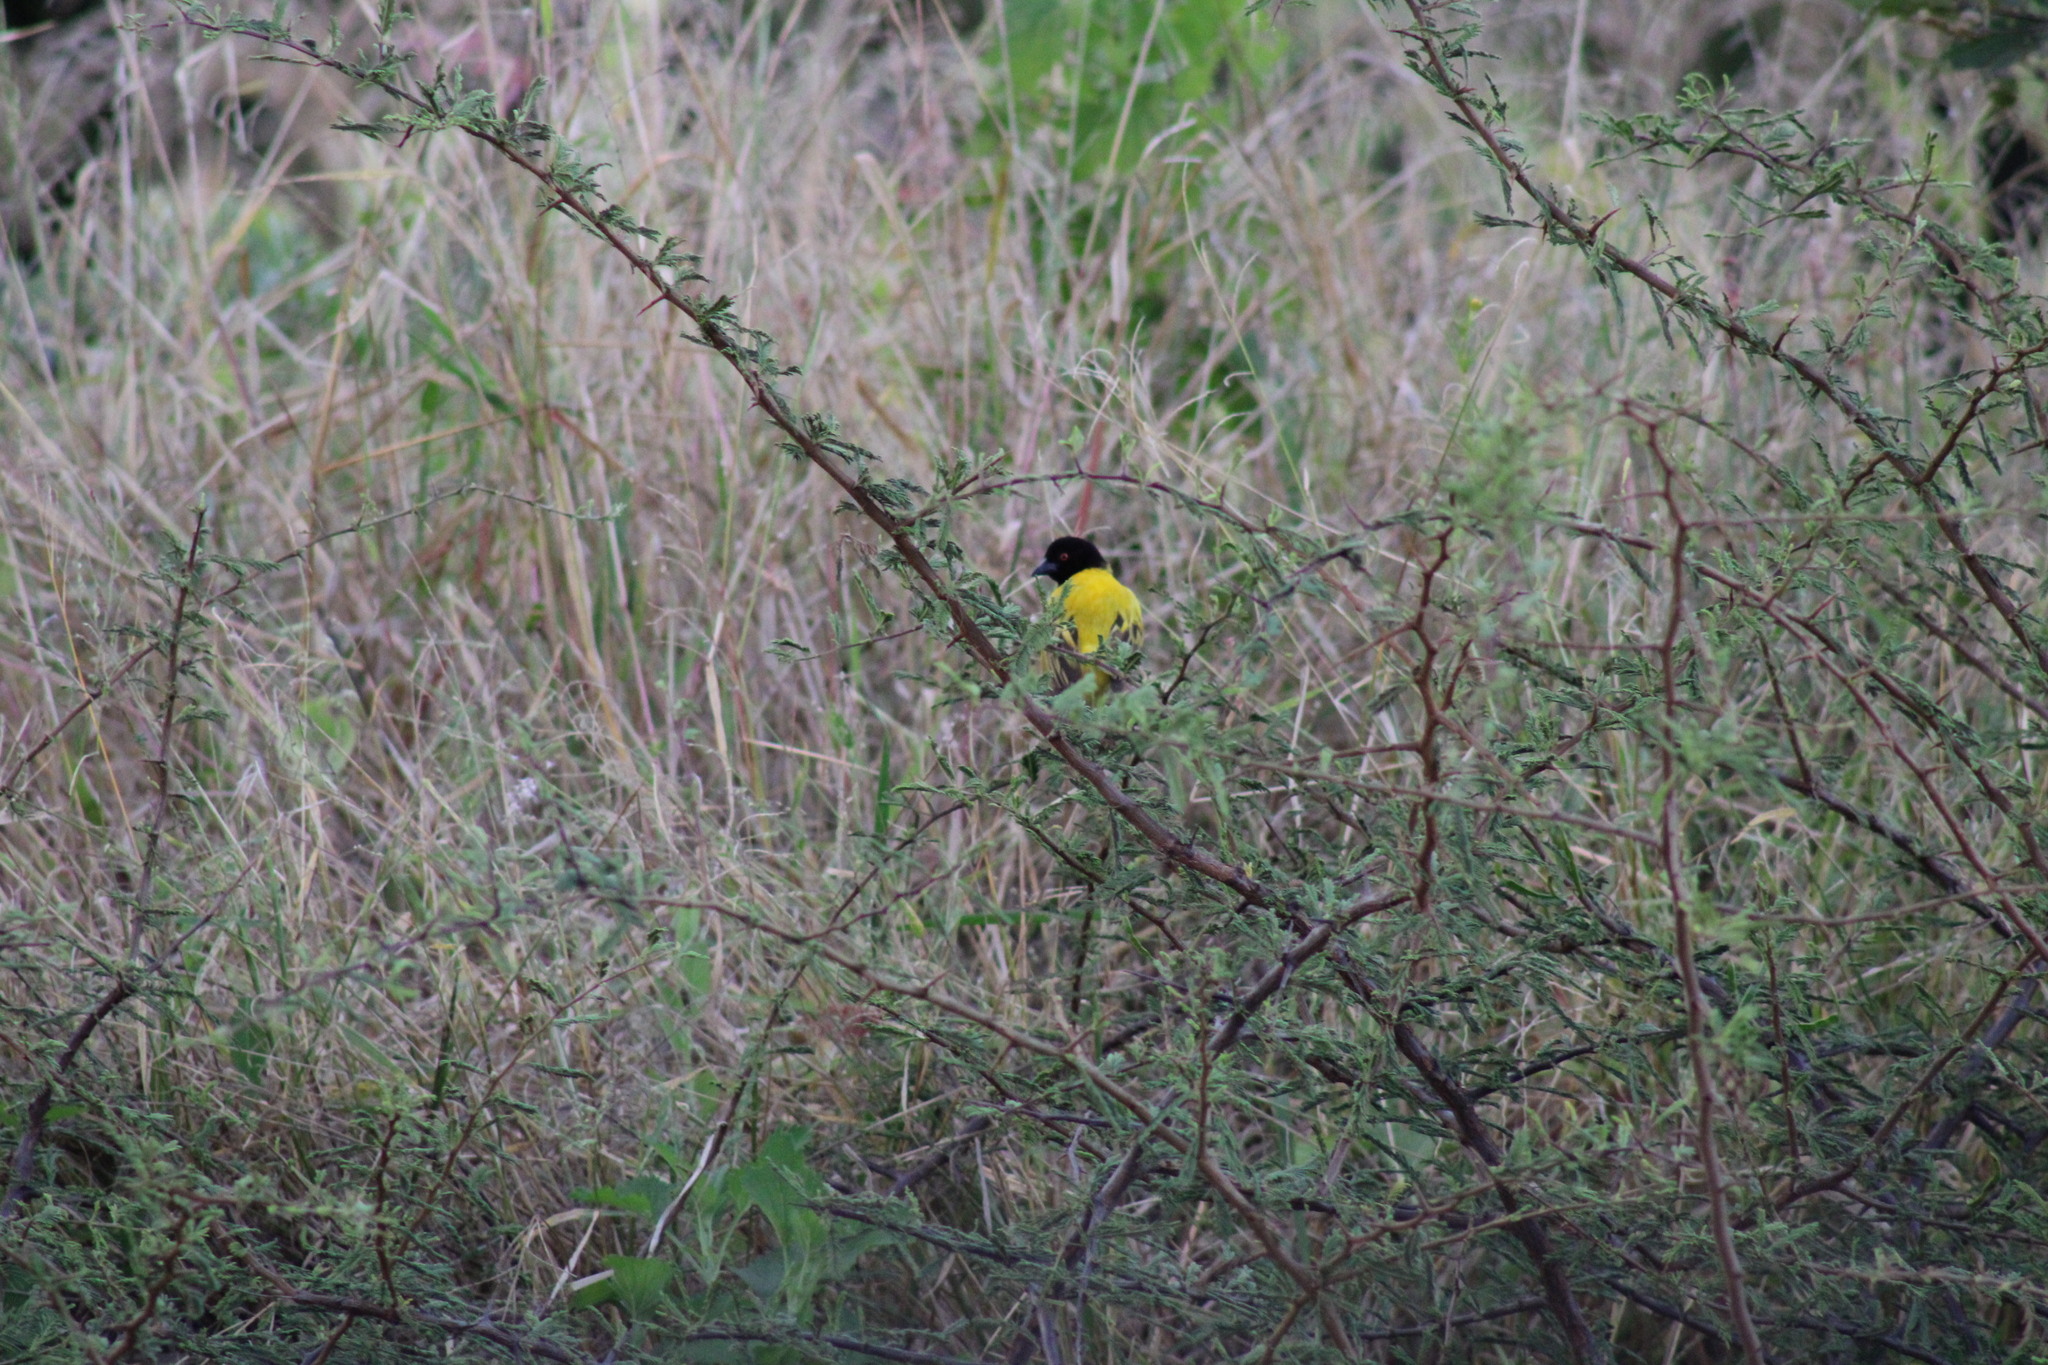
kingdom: Animalia
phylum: Chordata
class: Aves
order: Passeriformes
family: Ploceidae
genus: Ploceus
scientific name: Ploceus jacksoni
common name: Golden-backed weaver
